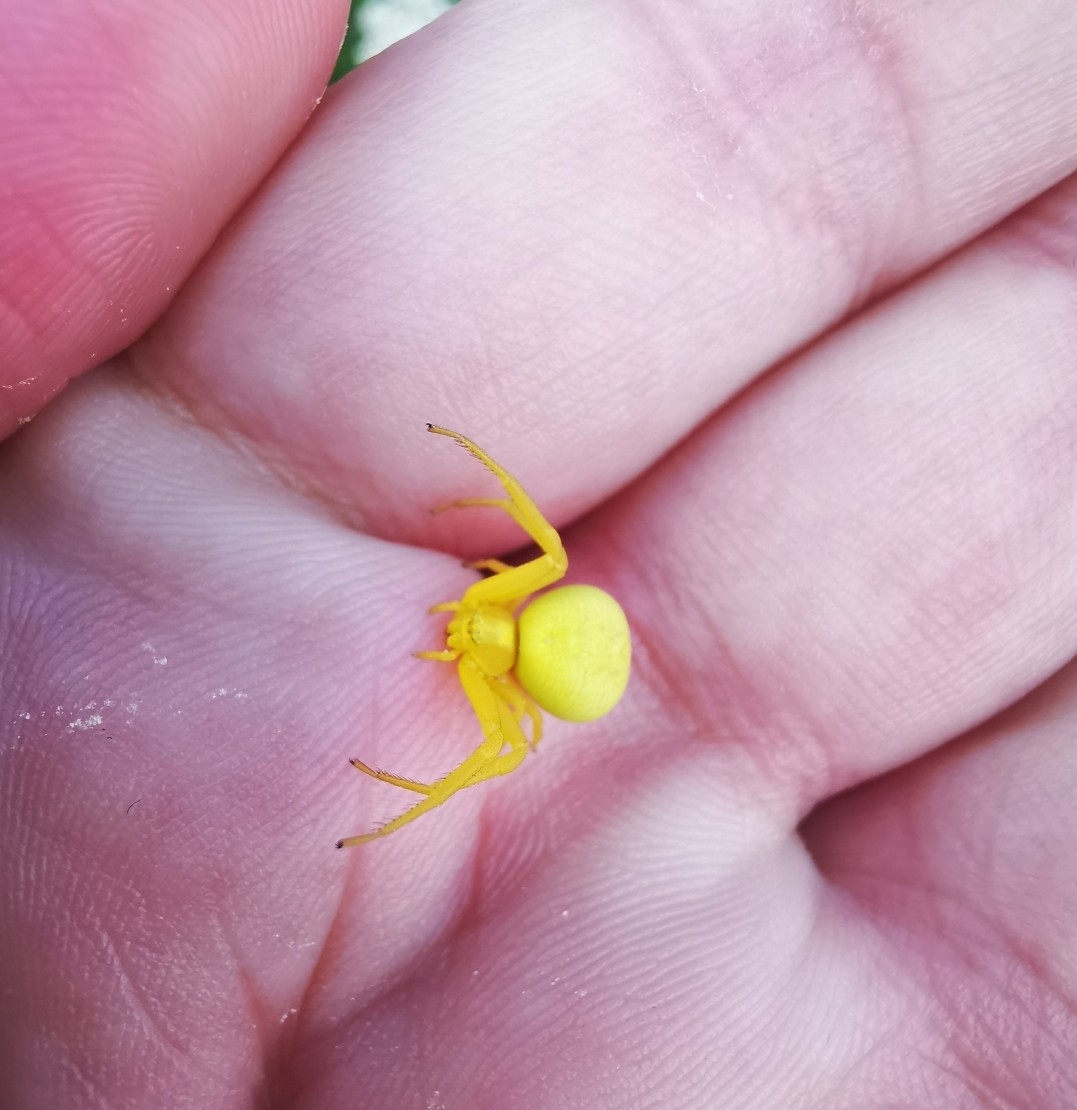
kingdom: Animalia
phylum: Arthropoda
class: Arachnida
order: Araneae
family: Thomisidae
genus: Misumena
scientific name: Misumena vatia
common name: Goldenrod crab spider
